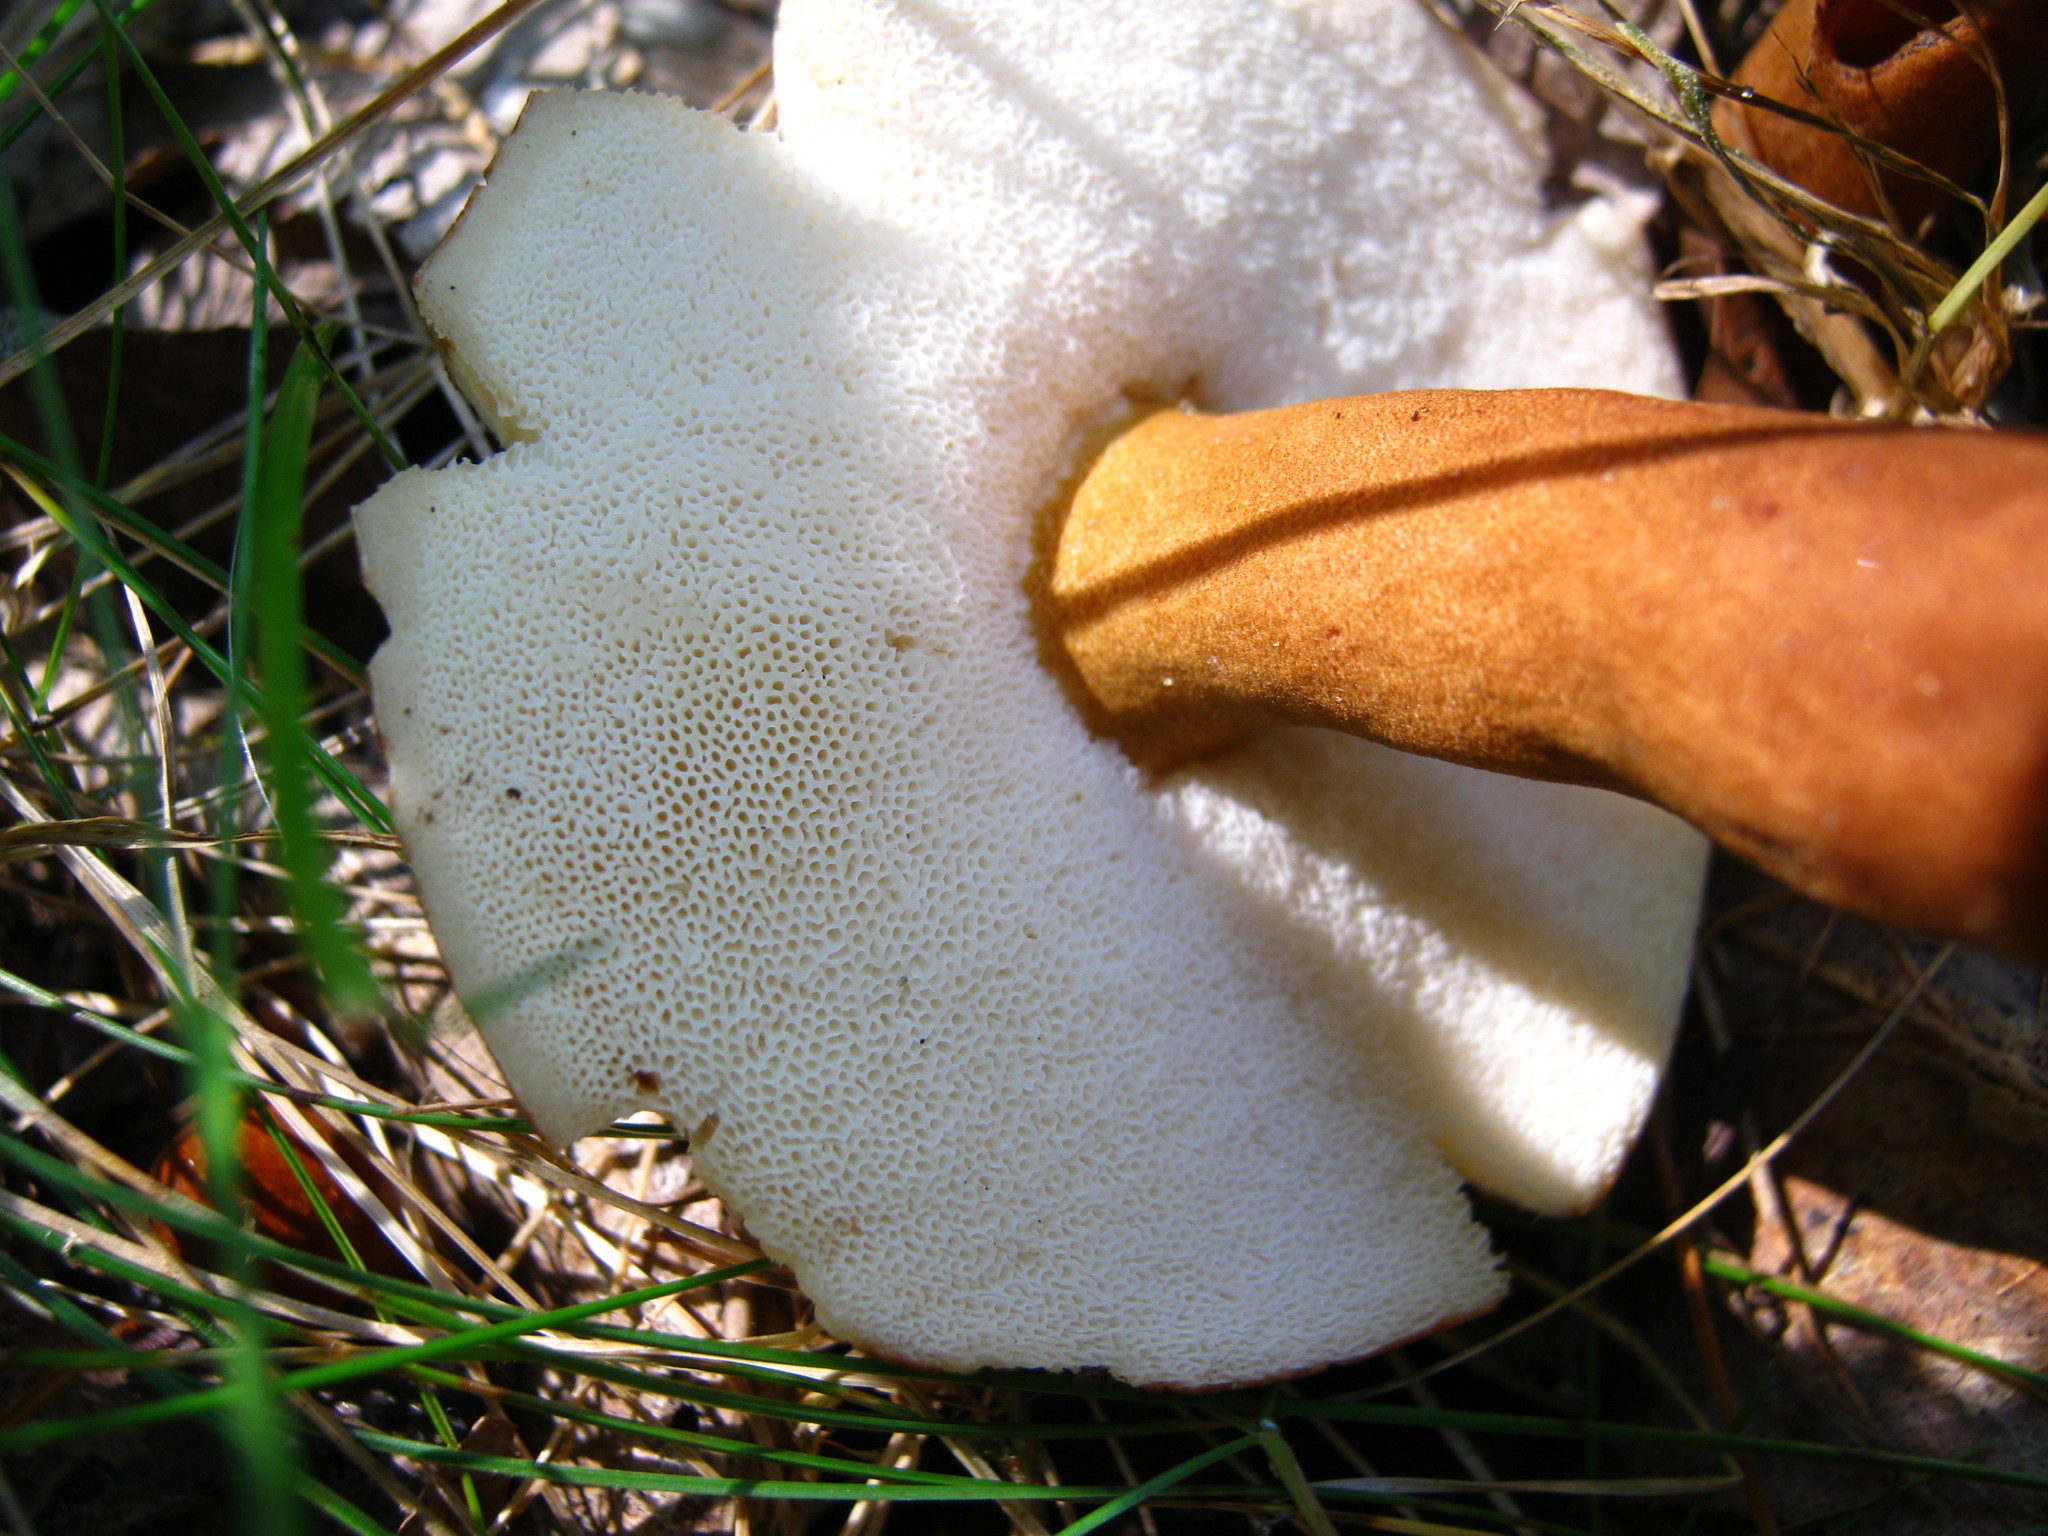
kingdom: Fungi
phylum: Basidiomycota
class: Agaricomycetes
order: Boletales
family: Gyroporaceae
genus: Gyroporus
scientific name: Gyroporus castaneus
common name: Chestnut bolete
